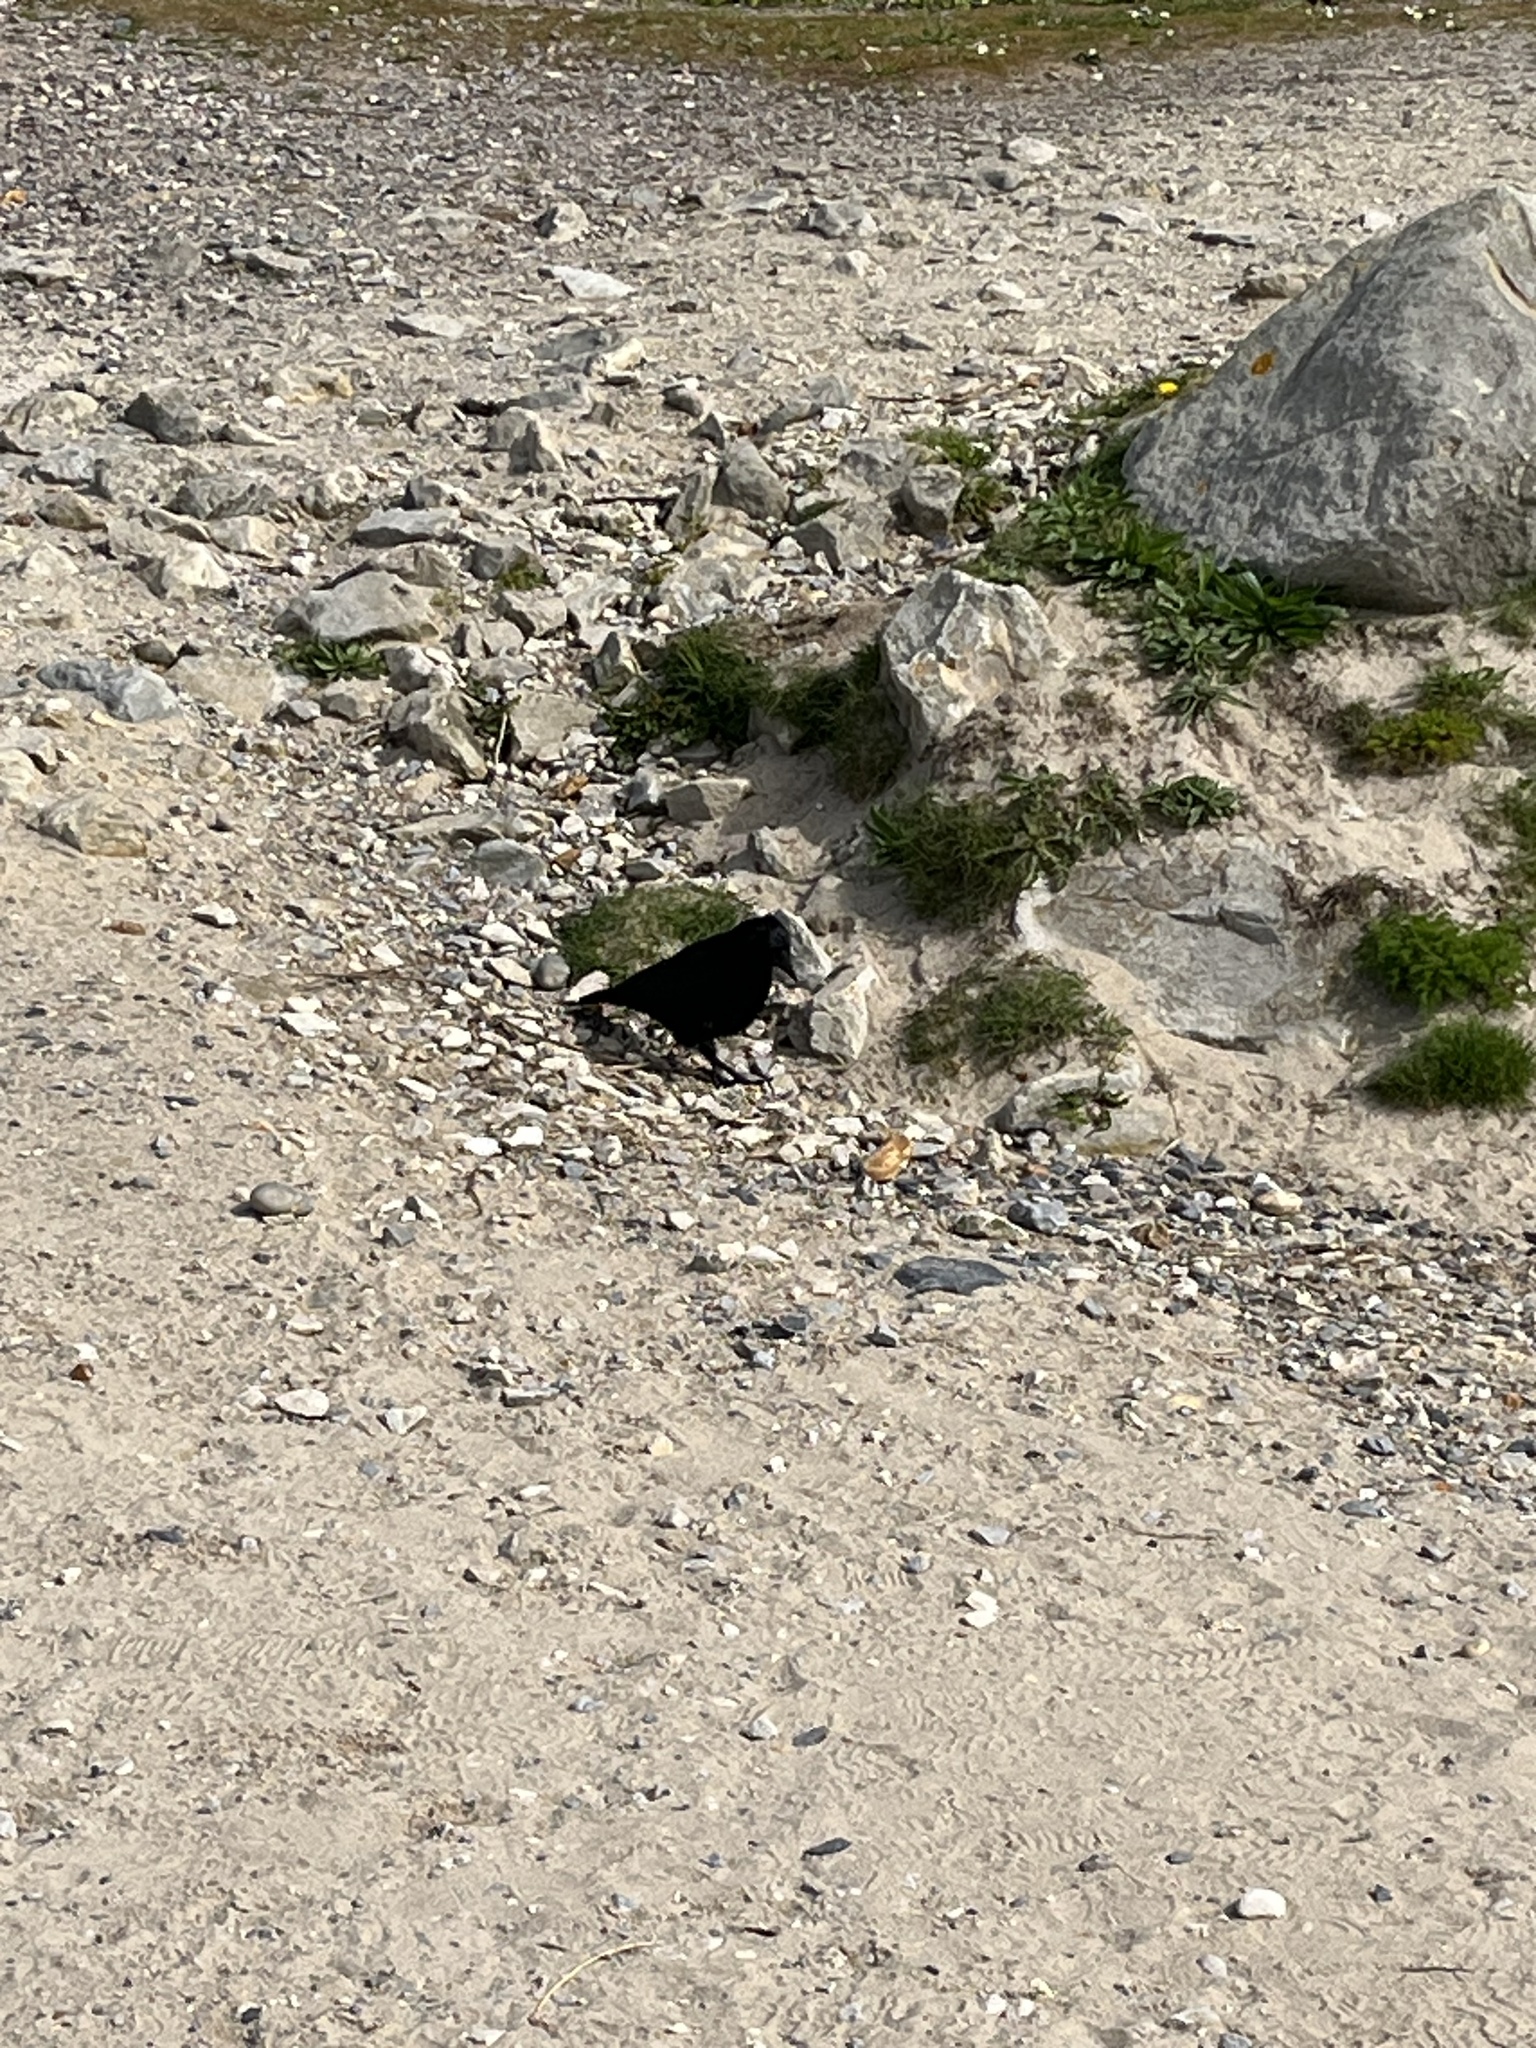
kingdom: Animalia
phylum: Chordata
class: Aves
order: Passeriformes
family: Corvidae
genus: Corvus
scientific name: Corvus corone
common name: Carrion crow
